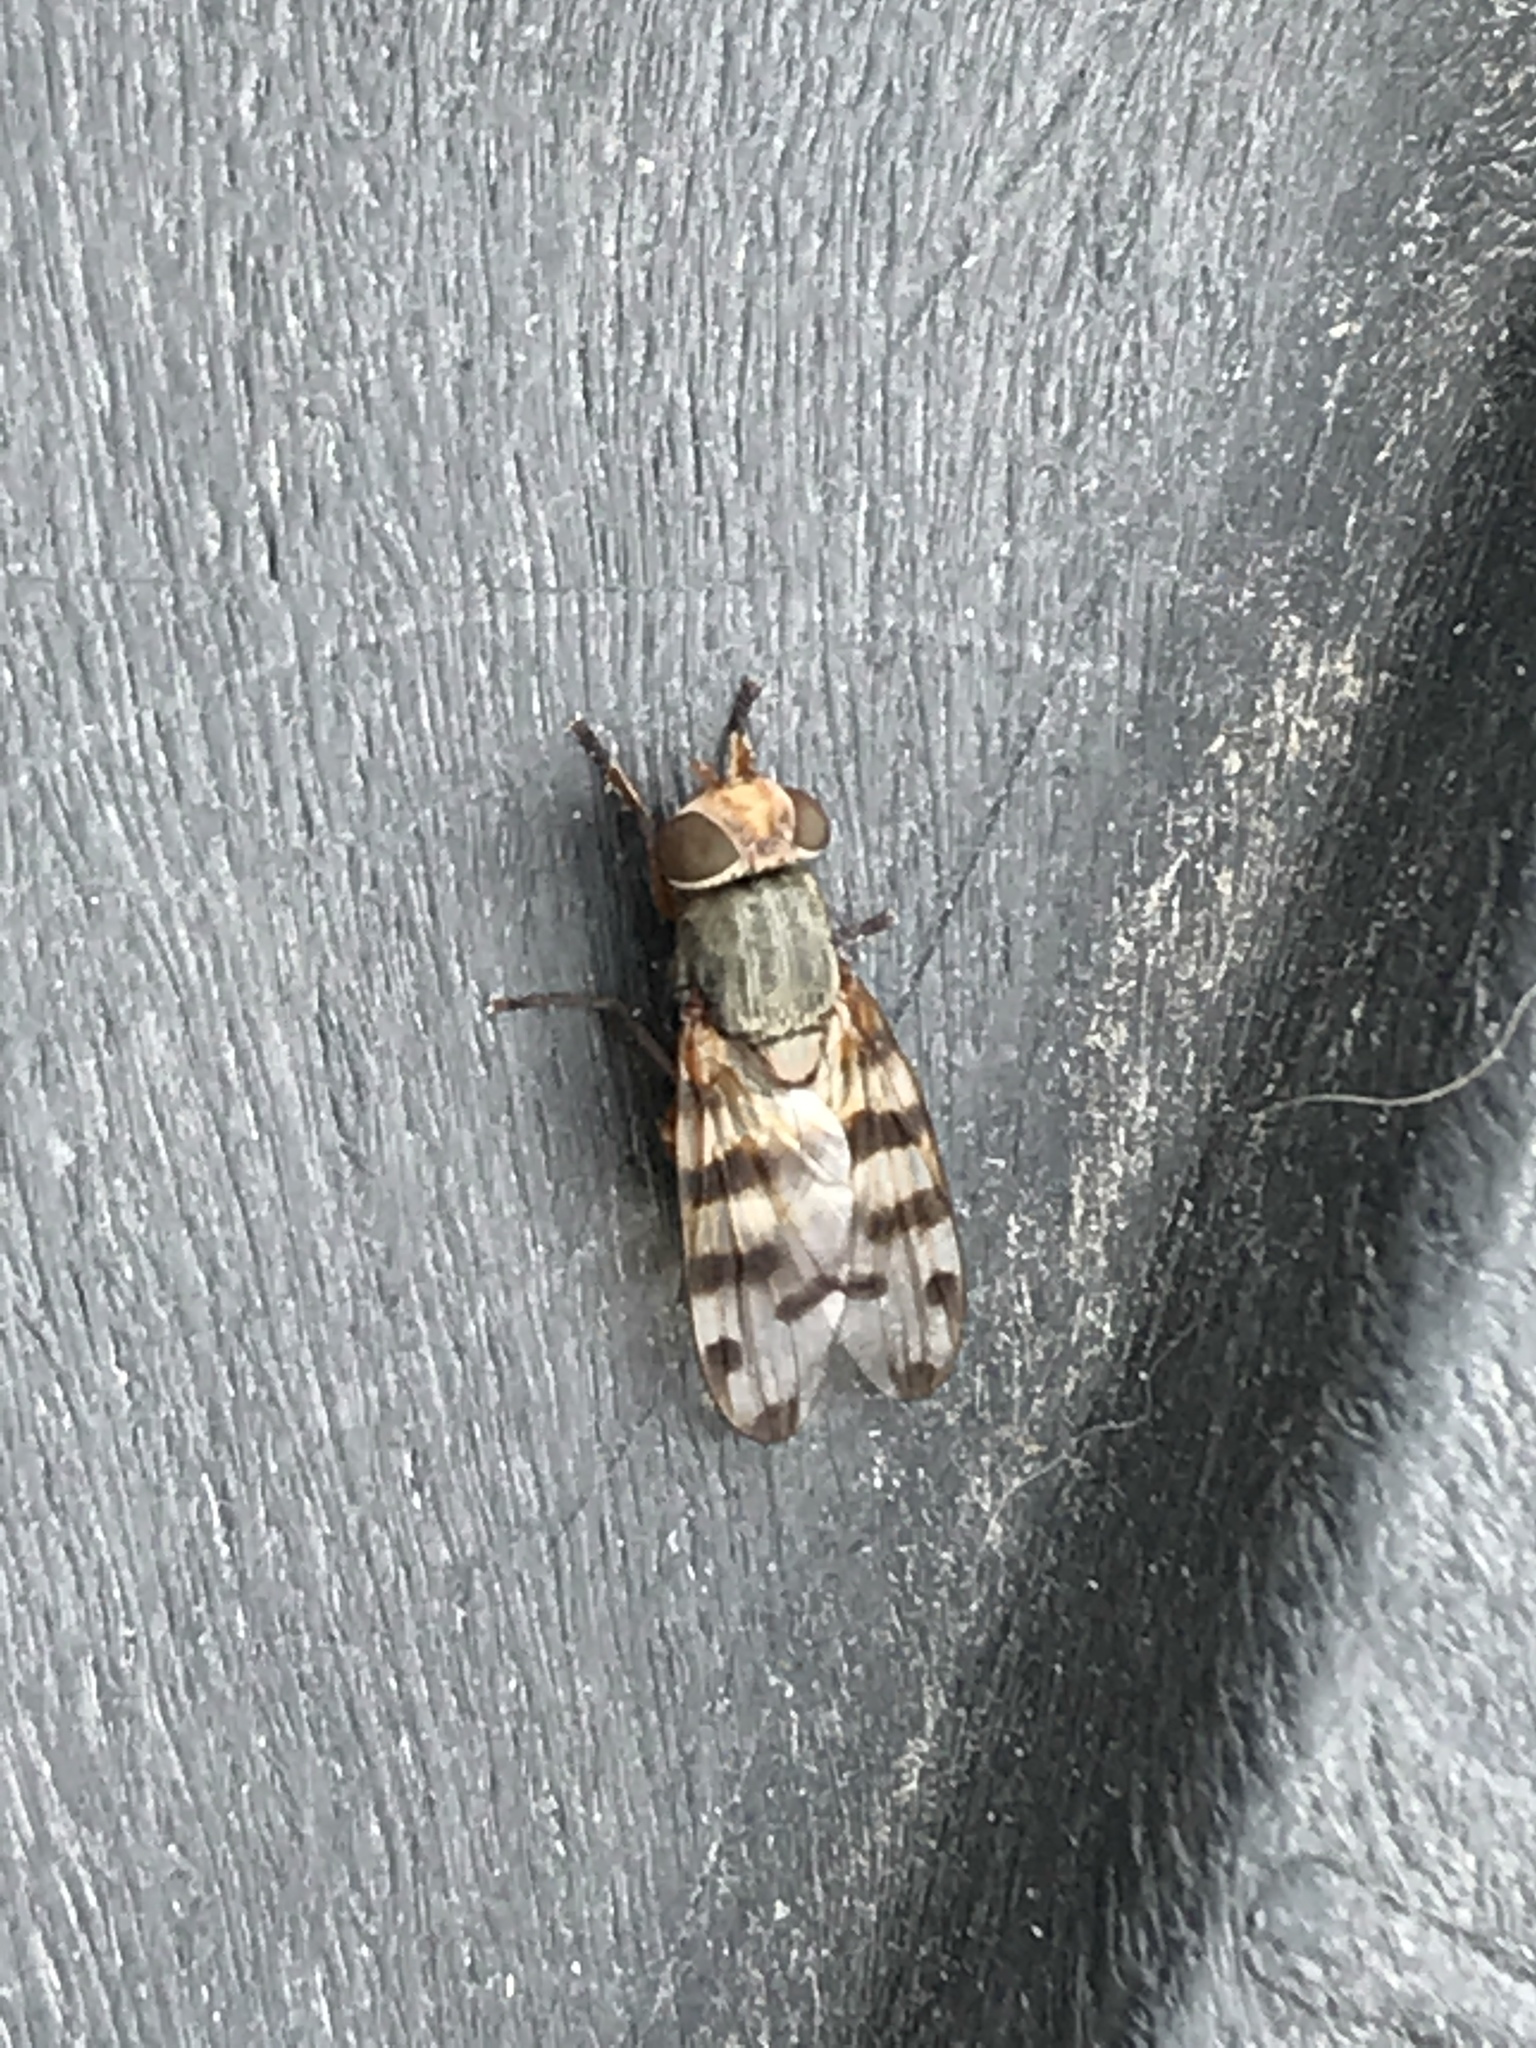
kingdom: Animalia
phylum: Arthropoda
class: Insecta
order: Diptera
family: Ulidiidae
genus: Ceroxys
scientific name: Ceroxys latiusculus
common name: Picture-winged fly
